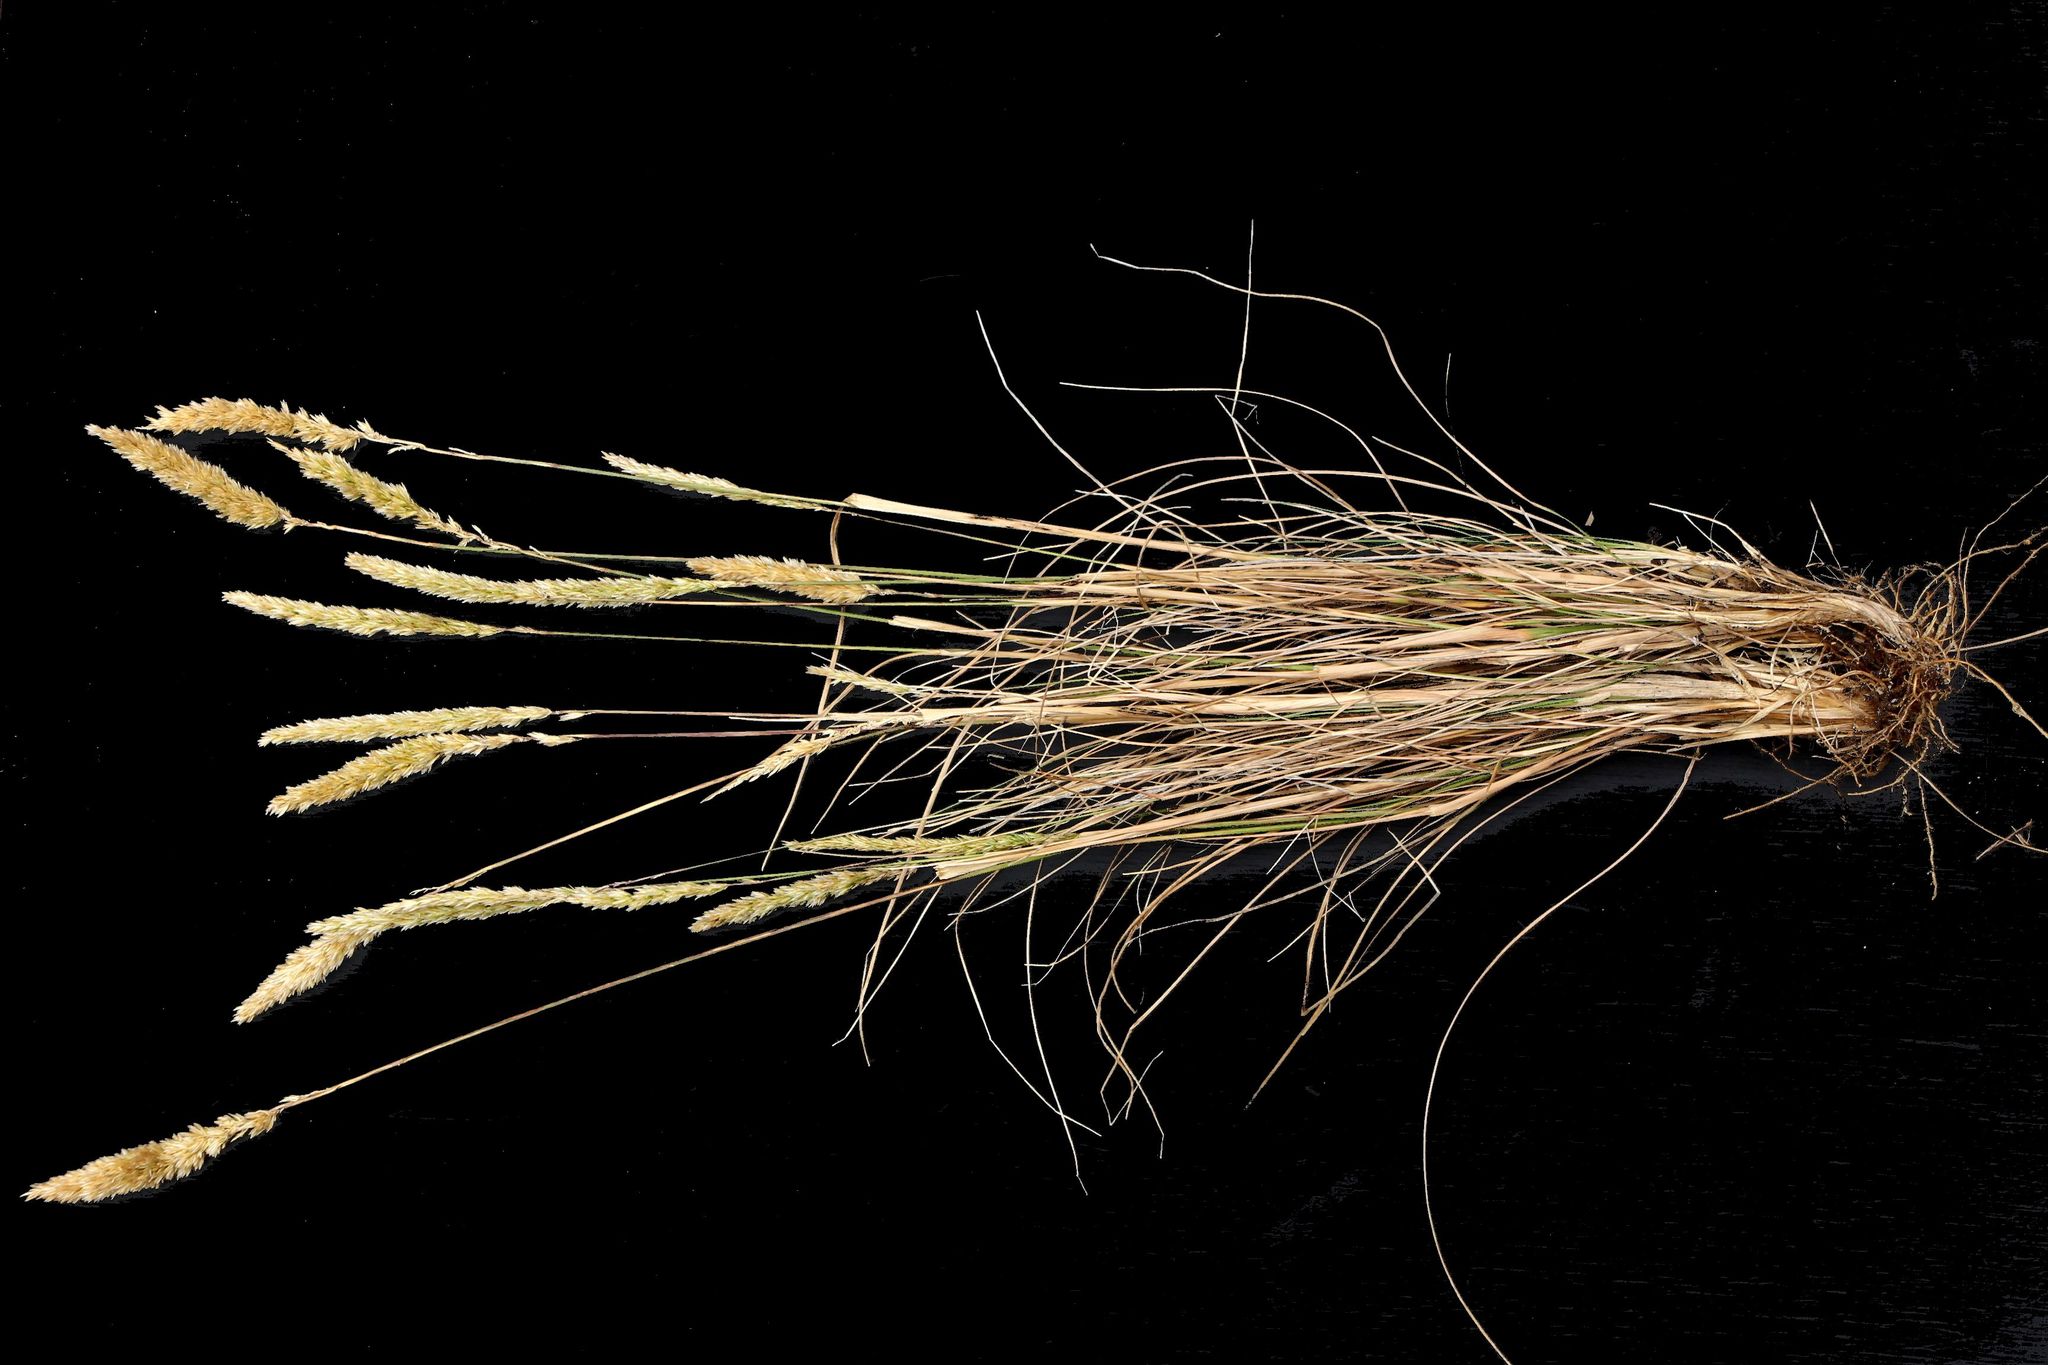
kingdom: Plantae
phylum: Tracheophyta
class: Liliopsida
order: Poales
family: Poaceae
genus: Koeleria
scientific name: Koeleria capensis
